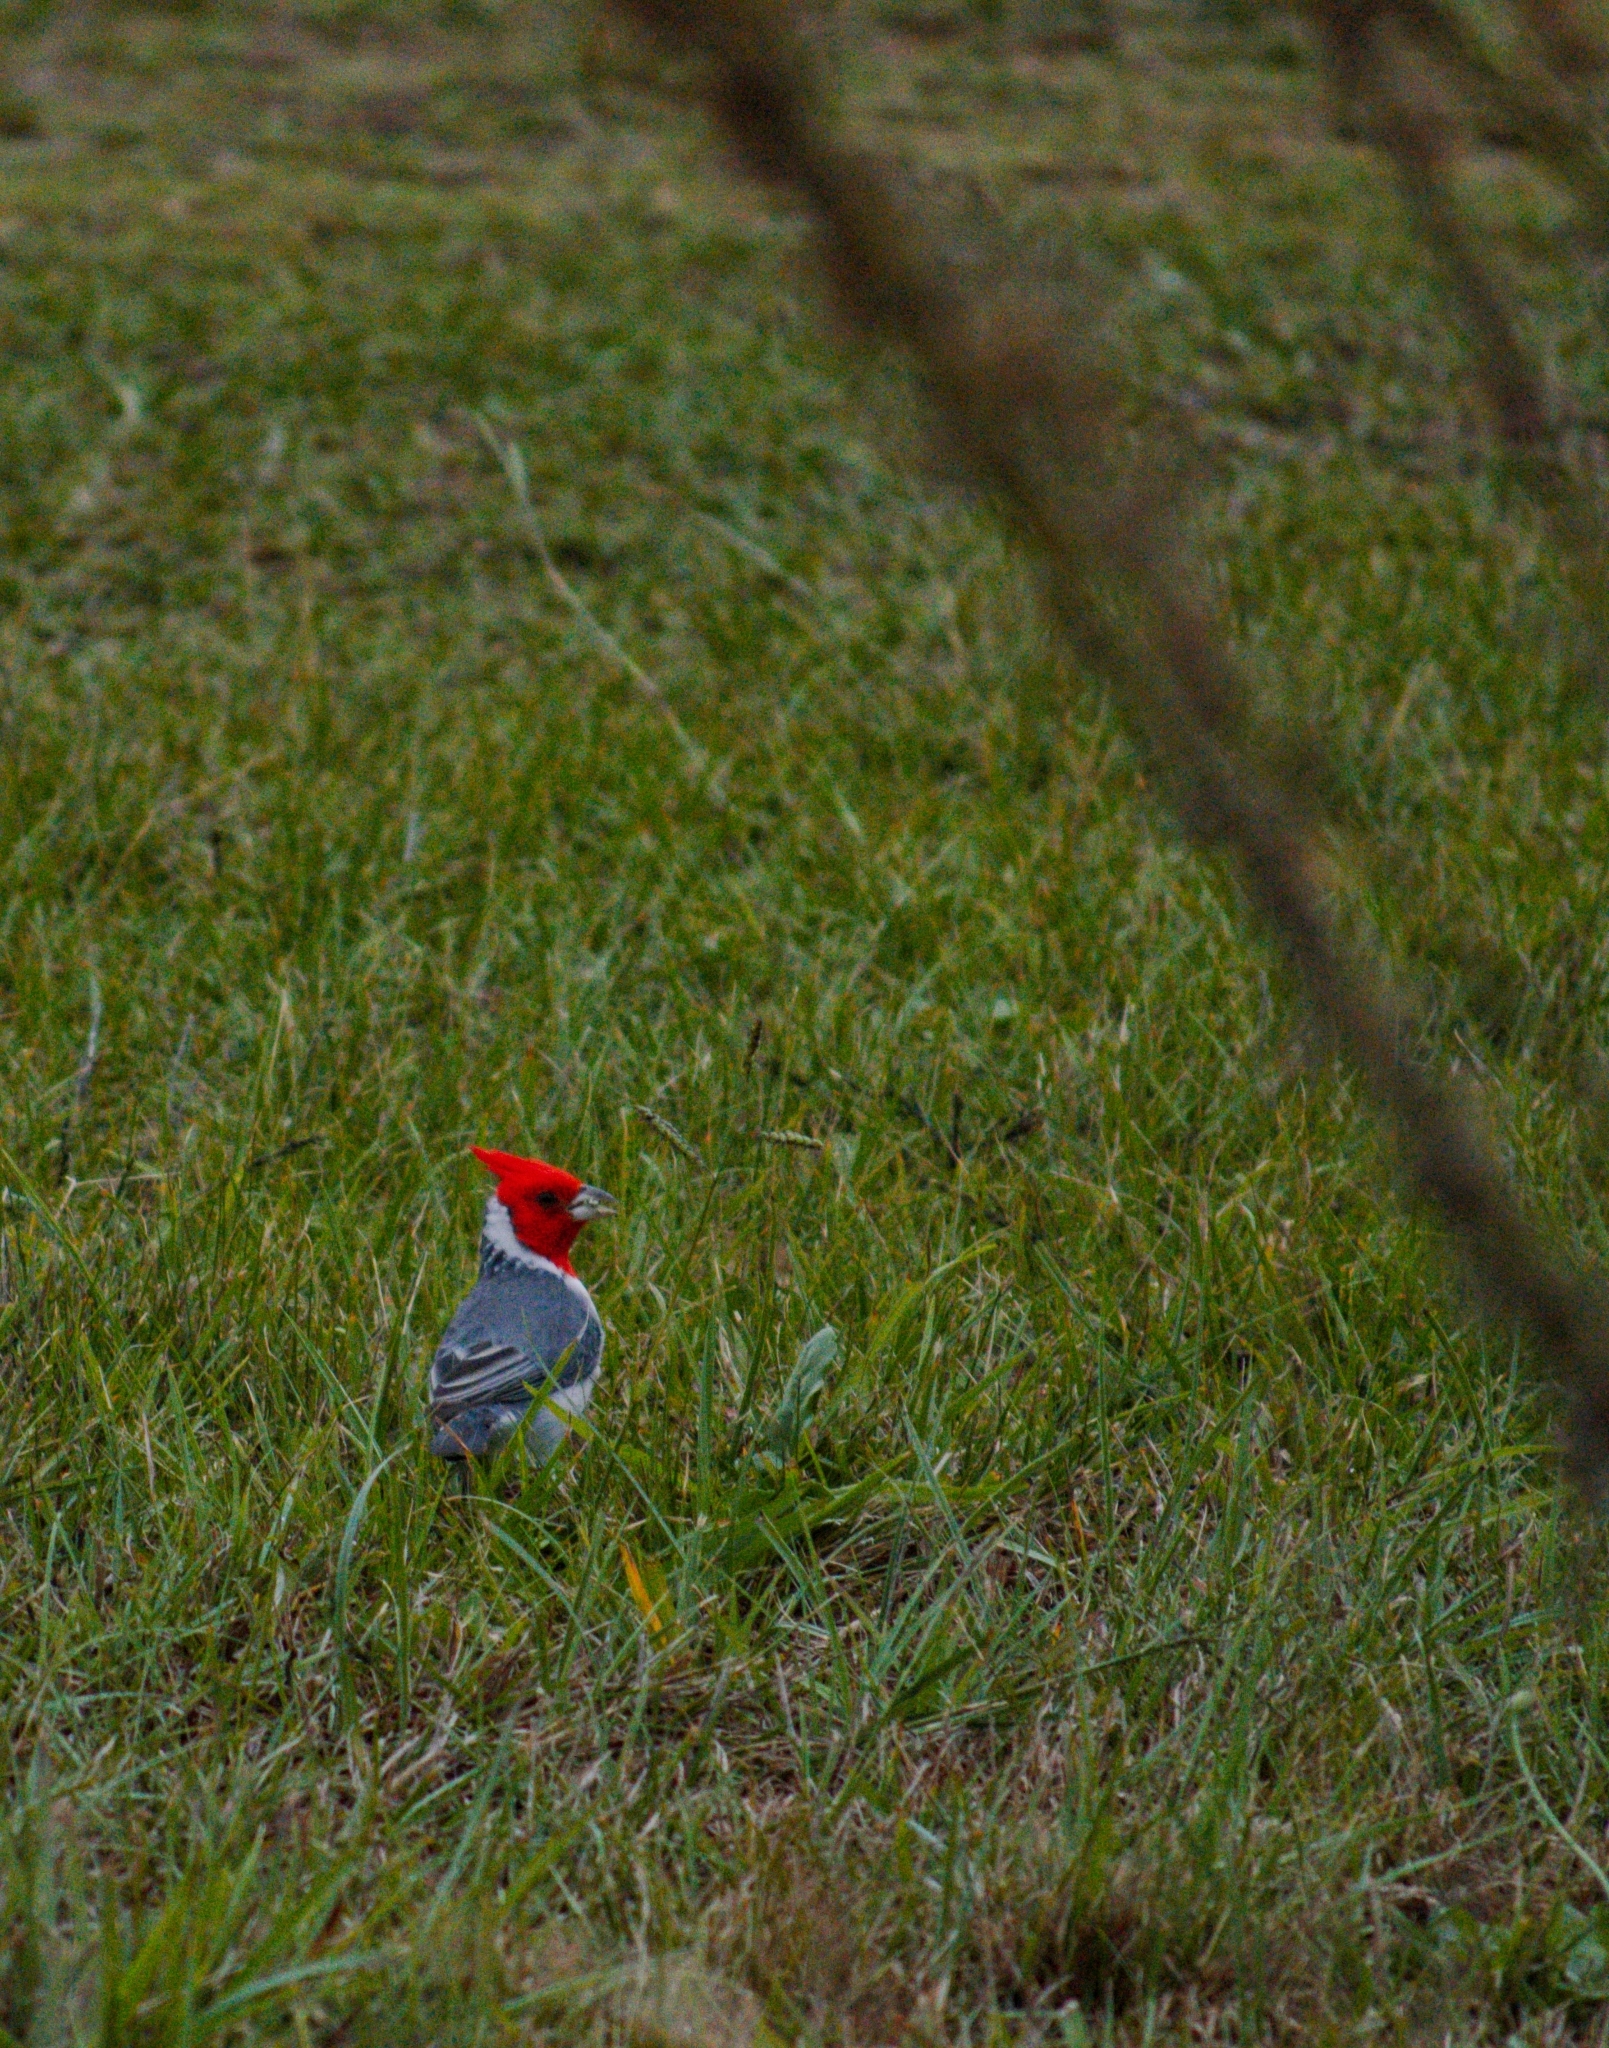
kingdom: Animalia
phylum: Chordata
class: Aves
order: Passeriformes
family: Thraupidae
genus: Paroaria
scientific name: Paroaria coronata
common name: Red-crested cardinal
